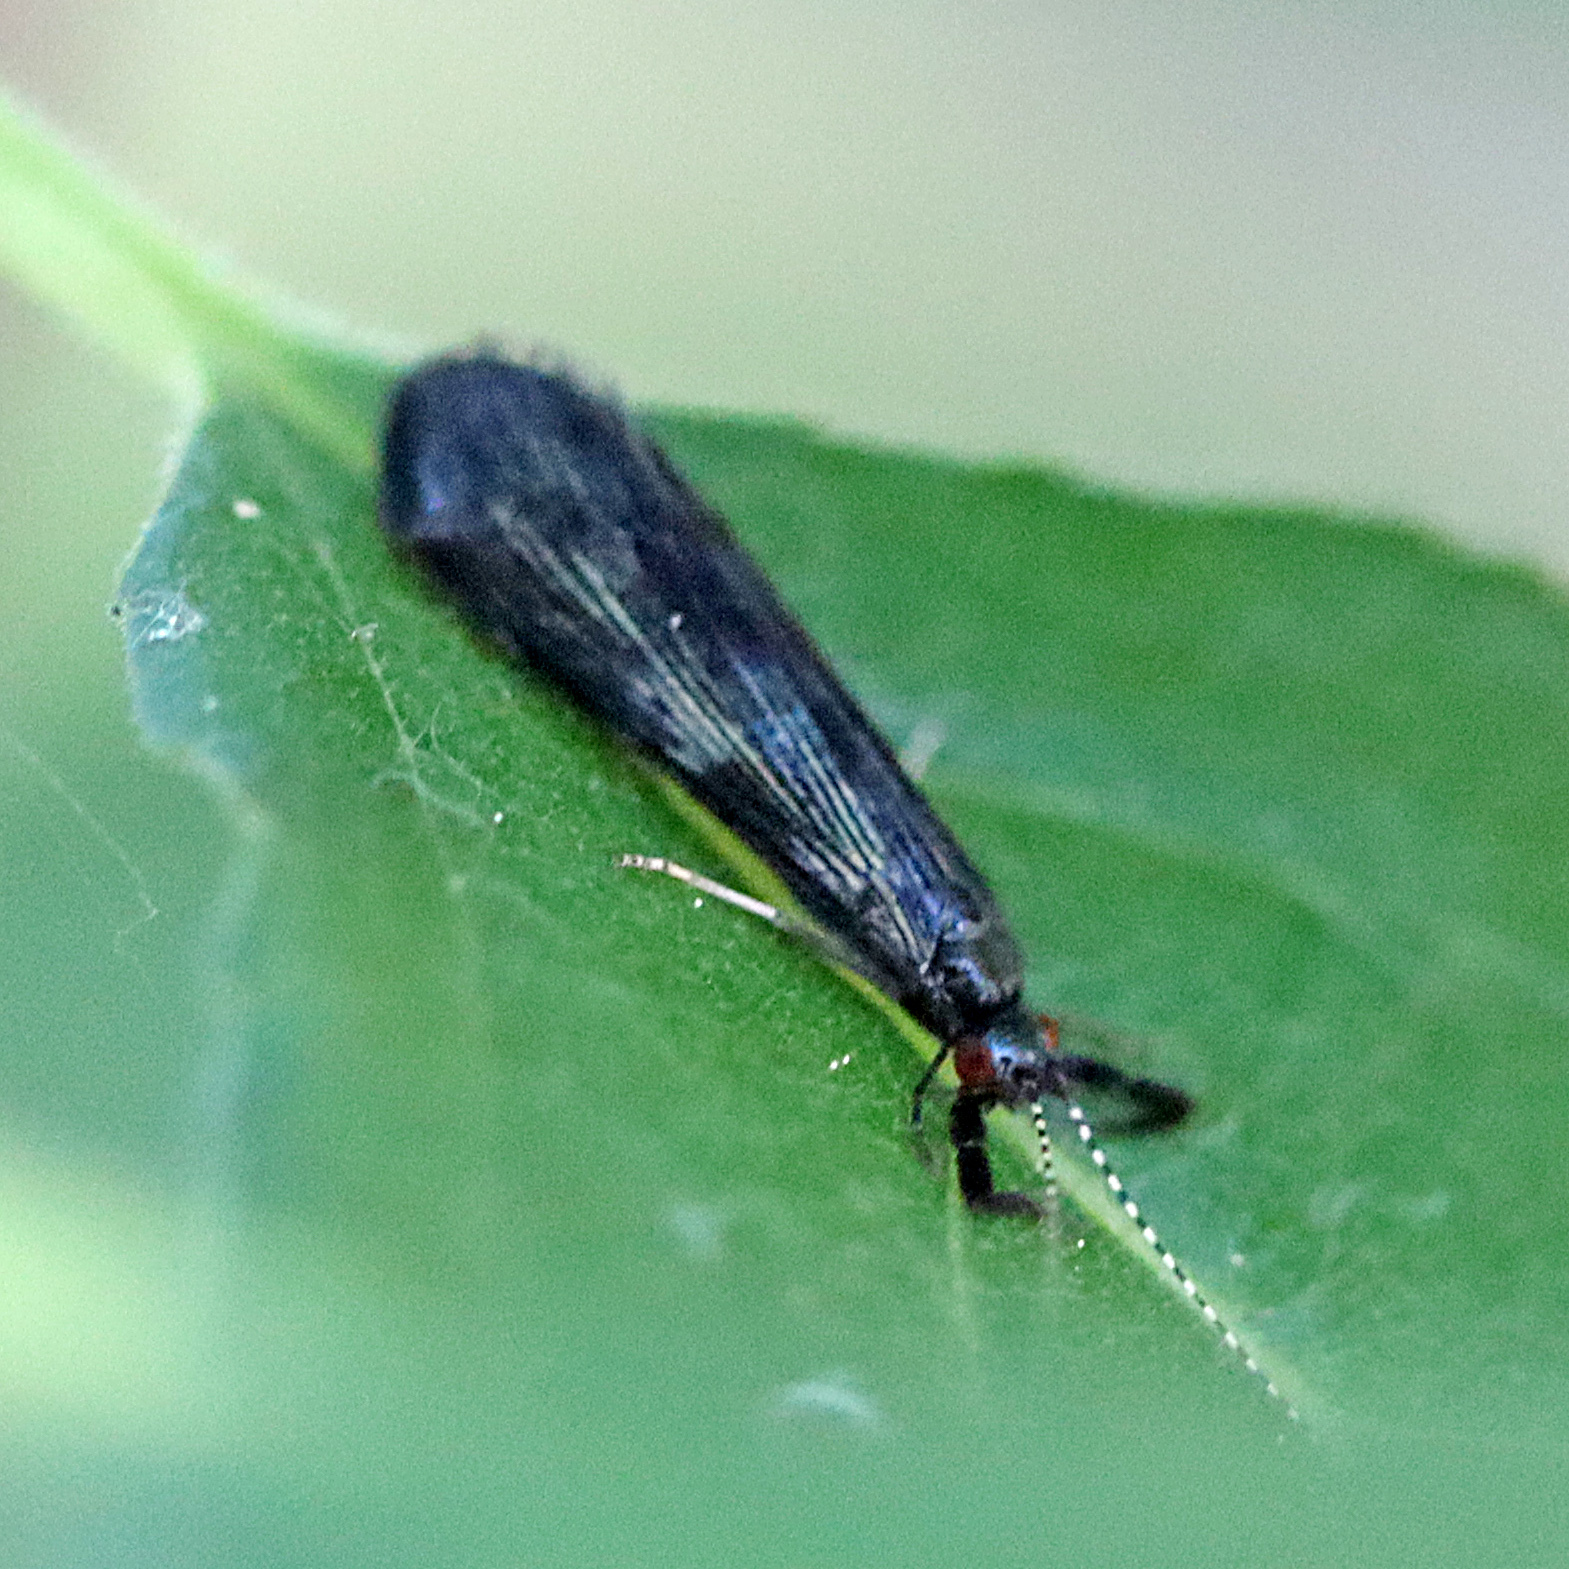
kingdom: Animalia
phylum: Arthropoda
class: Insecta
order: Trichoptera
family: Leptoceridae
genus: Mystacides
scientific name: Mystacides sepulchralis
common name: Black dancer caddisfly
